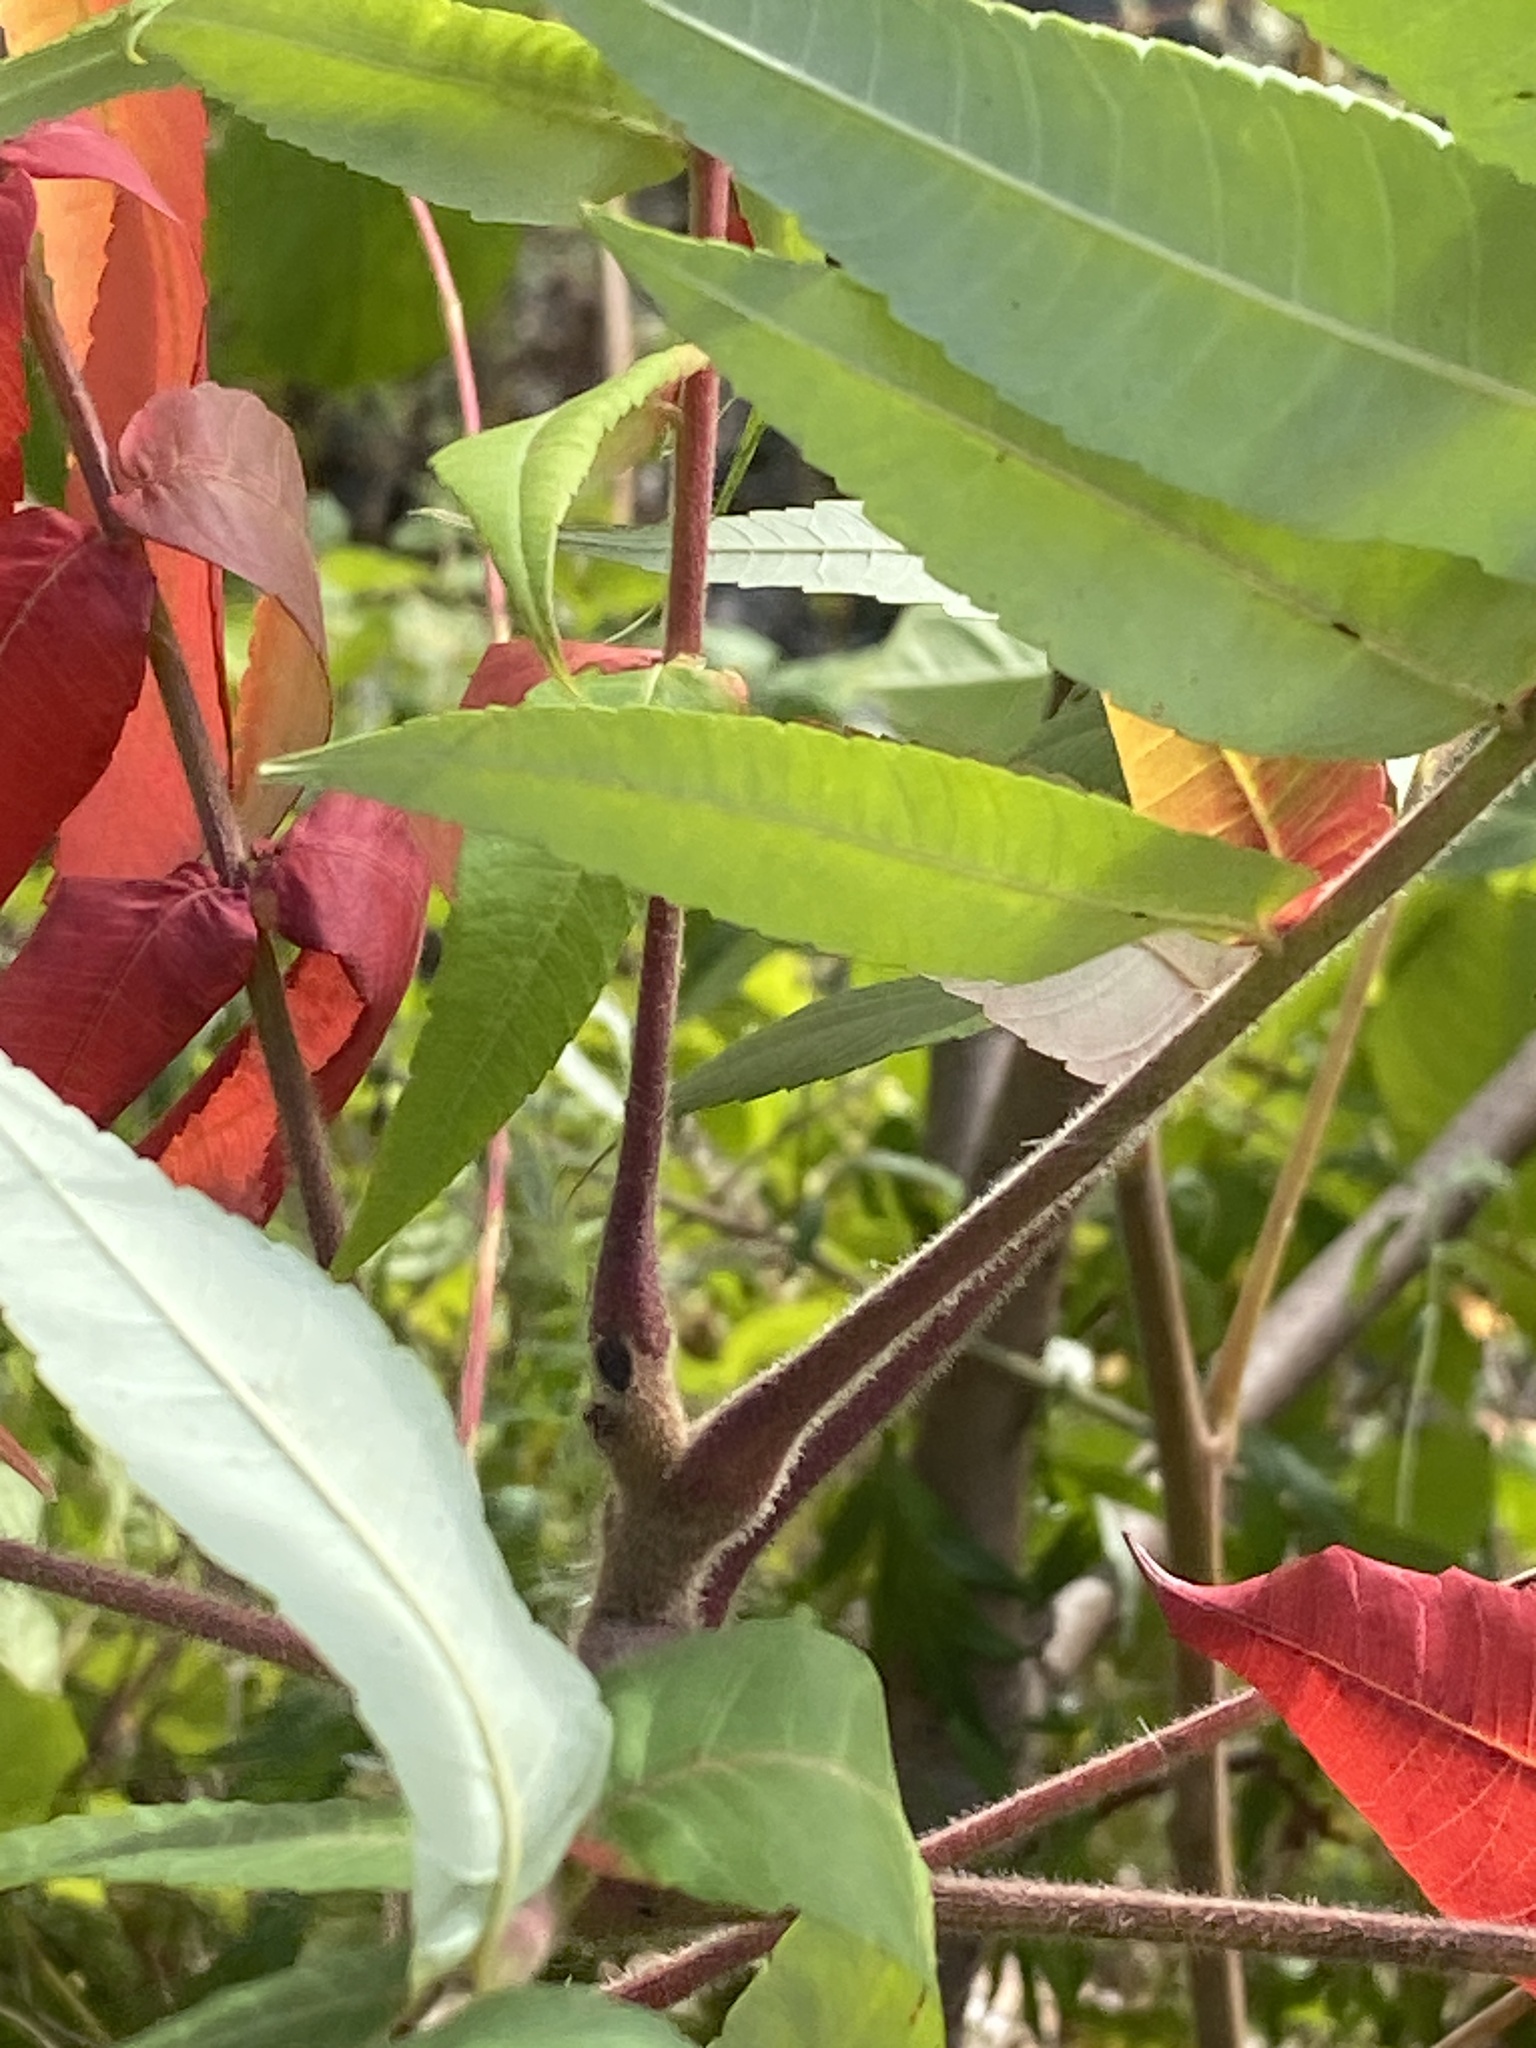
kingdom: Plantae
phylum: Tracheophyta
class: Magnoliopsida
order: Sapindales
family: Anacardiaceae
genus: Rhus
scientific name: Rhus typhina
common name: Staghorn sumac
